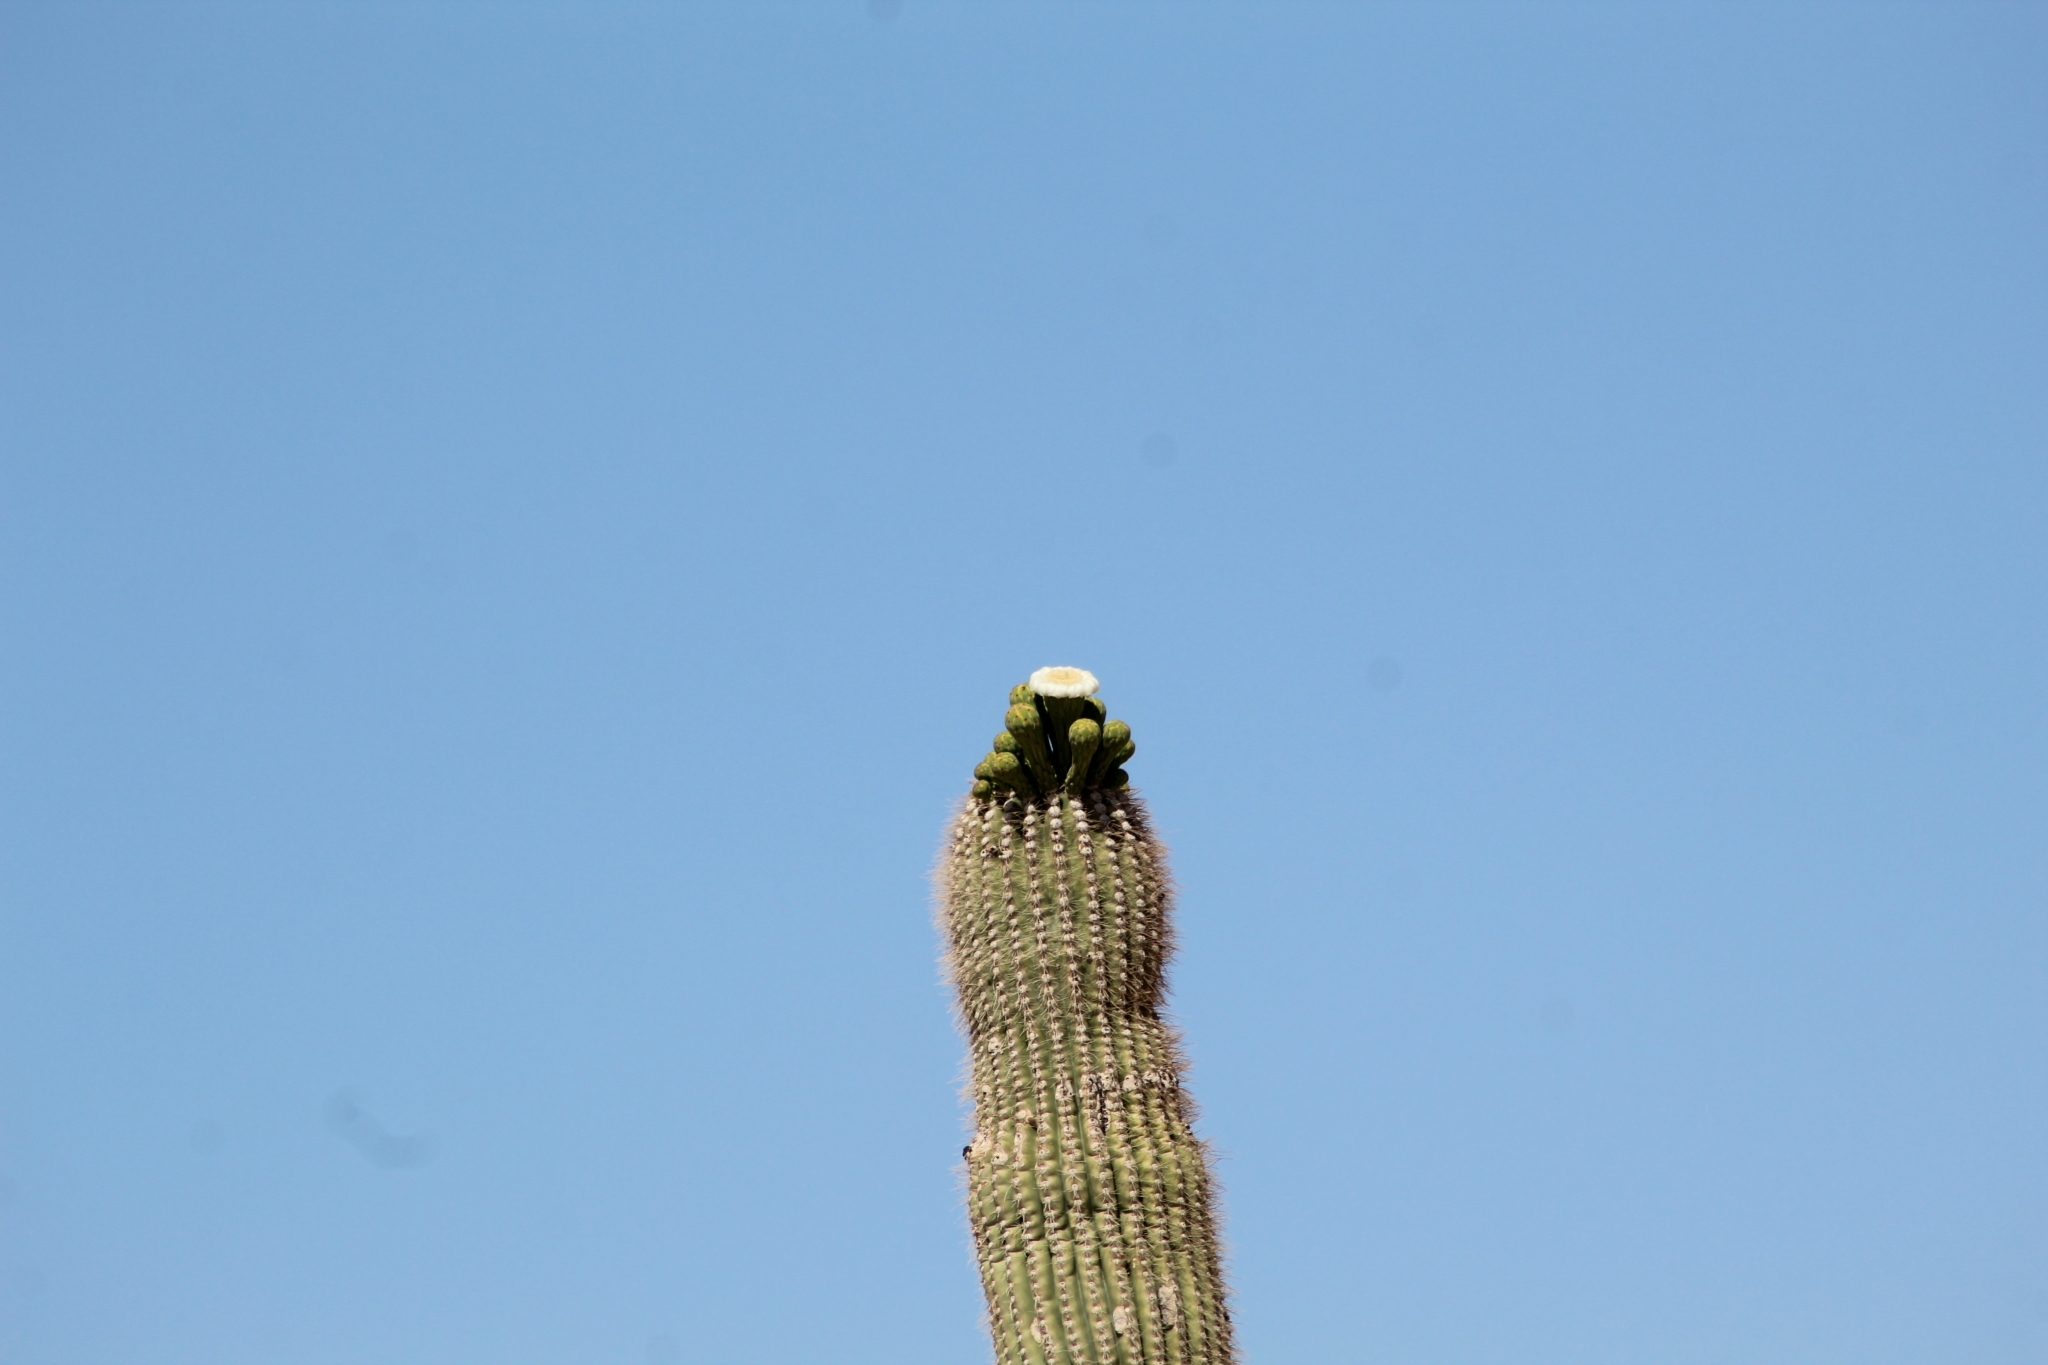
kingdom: Plantae
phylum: Tracheophyta
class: Magnoliopsida
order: Caryophyllales
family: Cactaceae
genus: Carnegiea
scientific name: Carnegiea gigantea
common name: Saguaro
